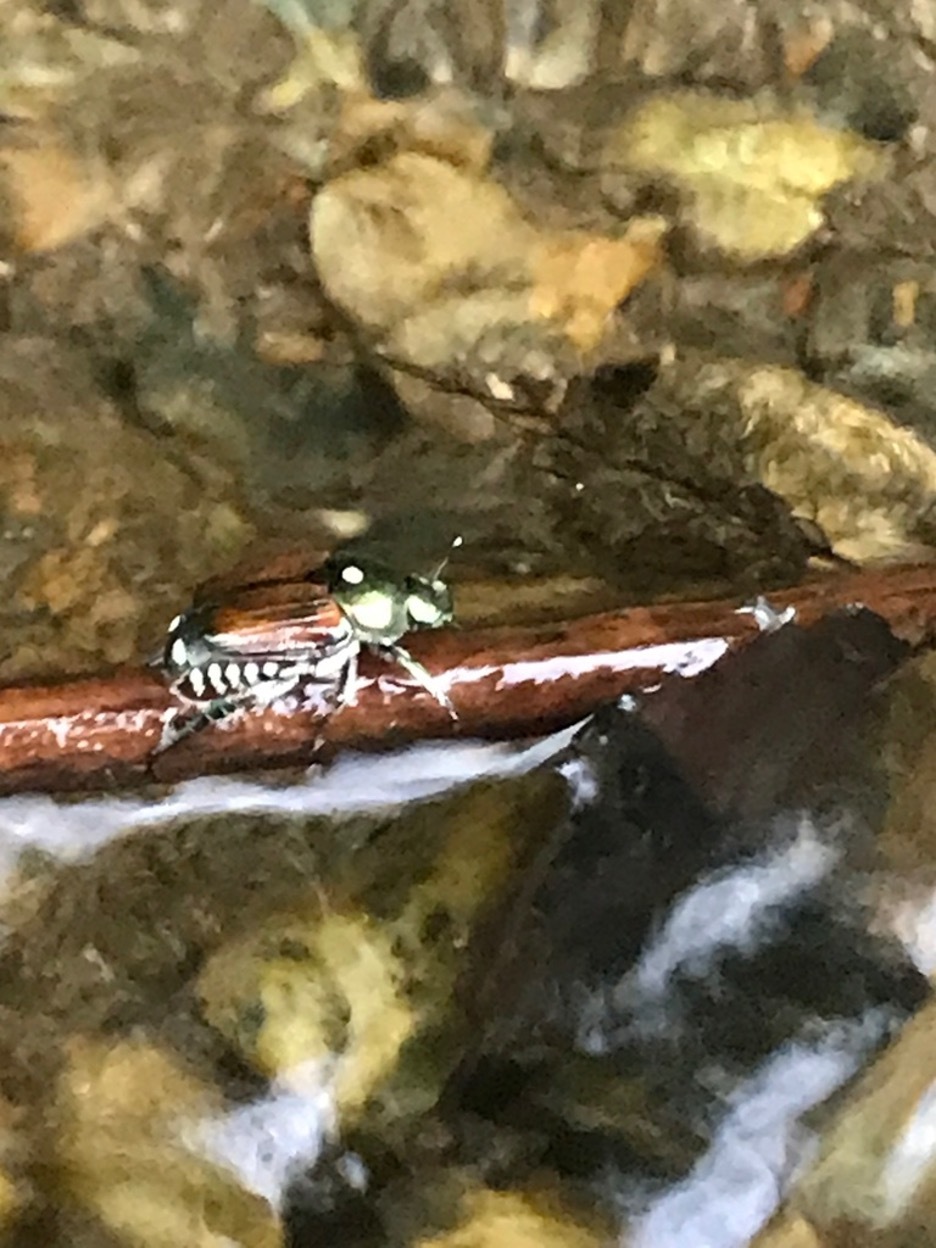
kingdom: Animalia
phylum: Arthropoda
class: Insecta
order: Diptera
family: Tachinidae
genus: Istocheta
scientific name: Istocheta aldrichi
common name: Parasitic wasp
